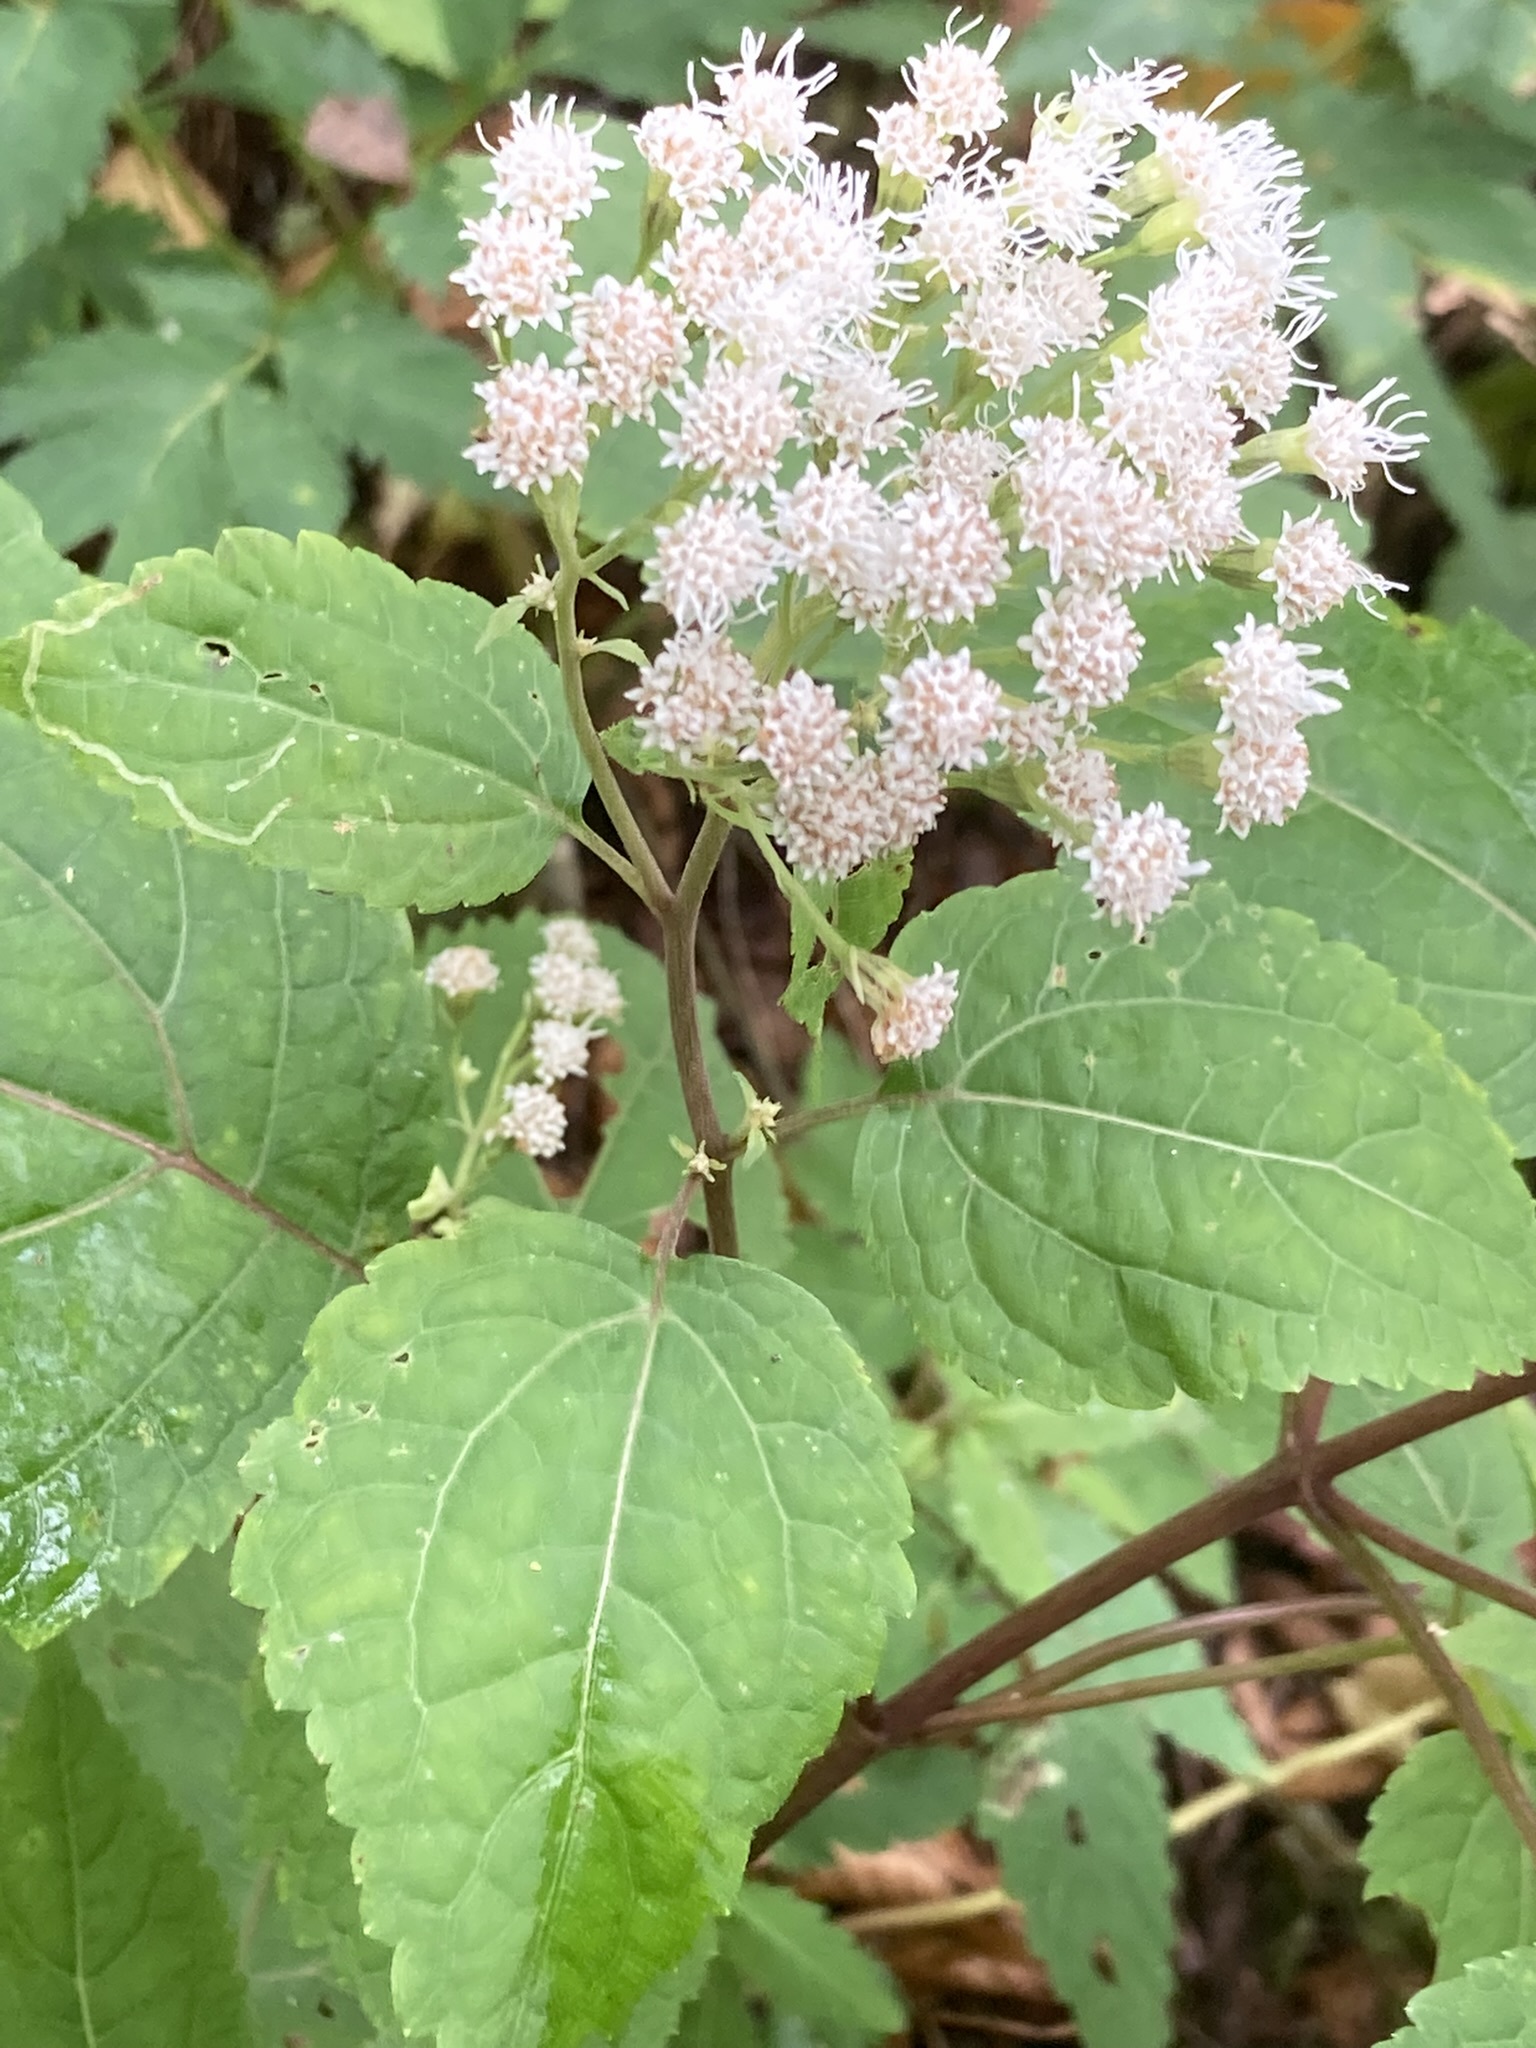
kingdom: Plantae
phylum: Tracheophyta
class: Magnoliopsida
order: Asterales
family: Asteraceae
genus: Ageratina
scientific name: Ageratina altissima
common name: White snakeroot
